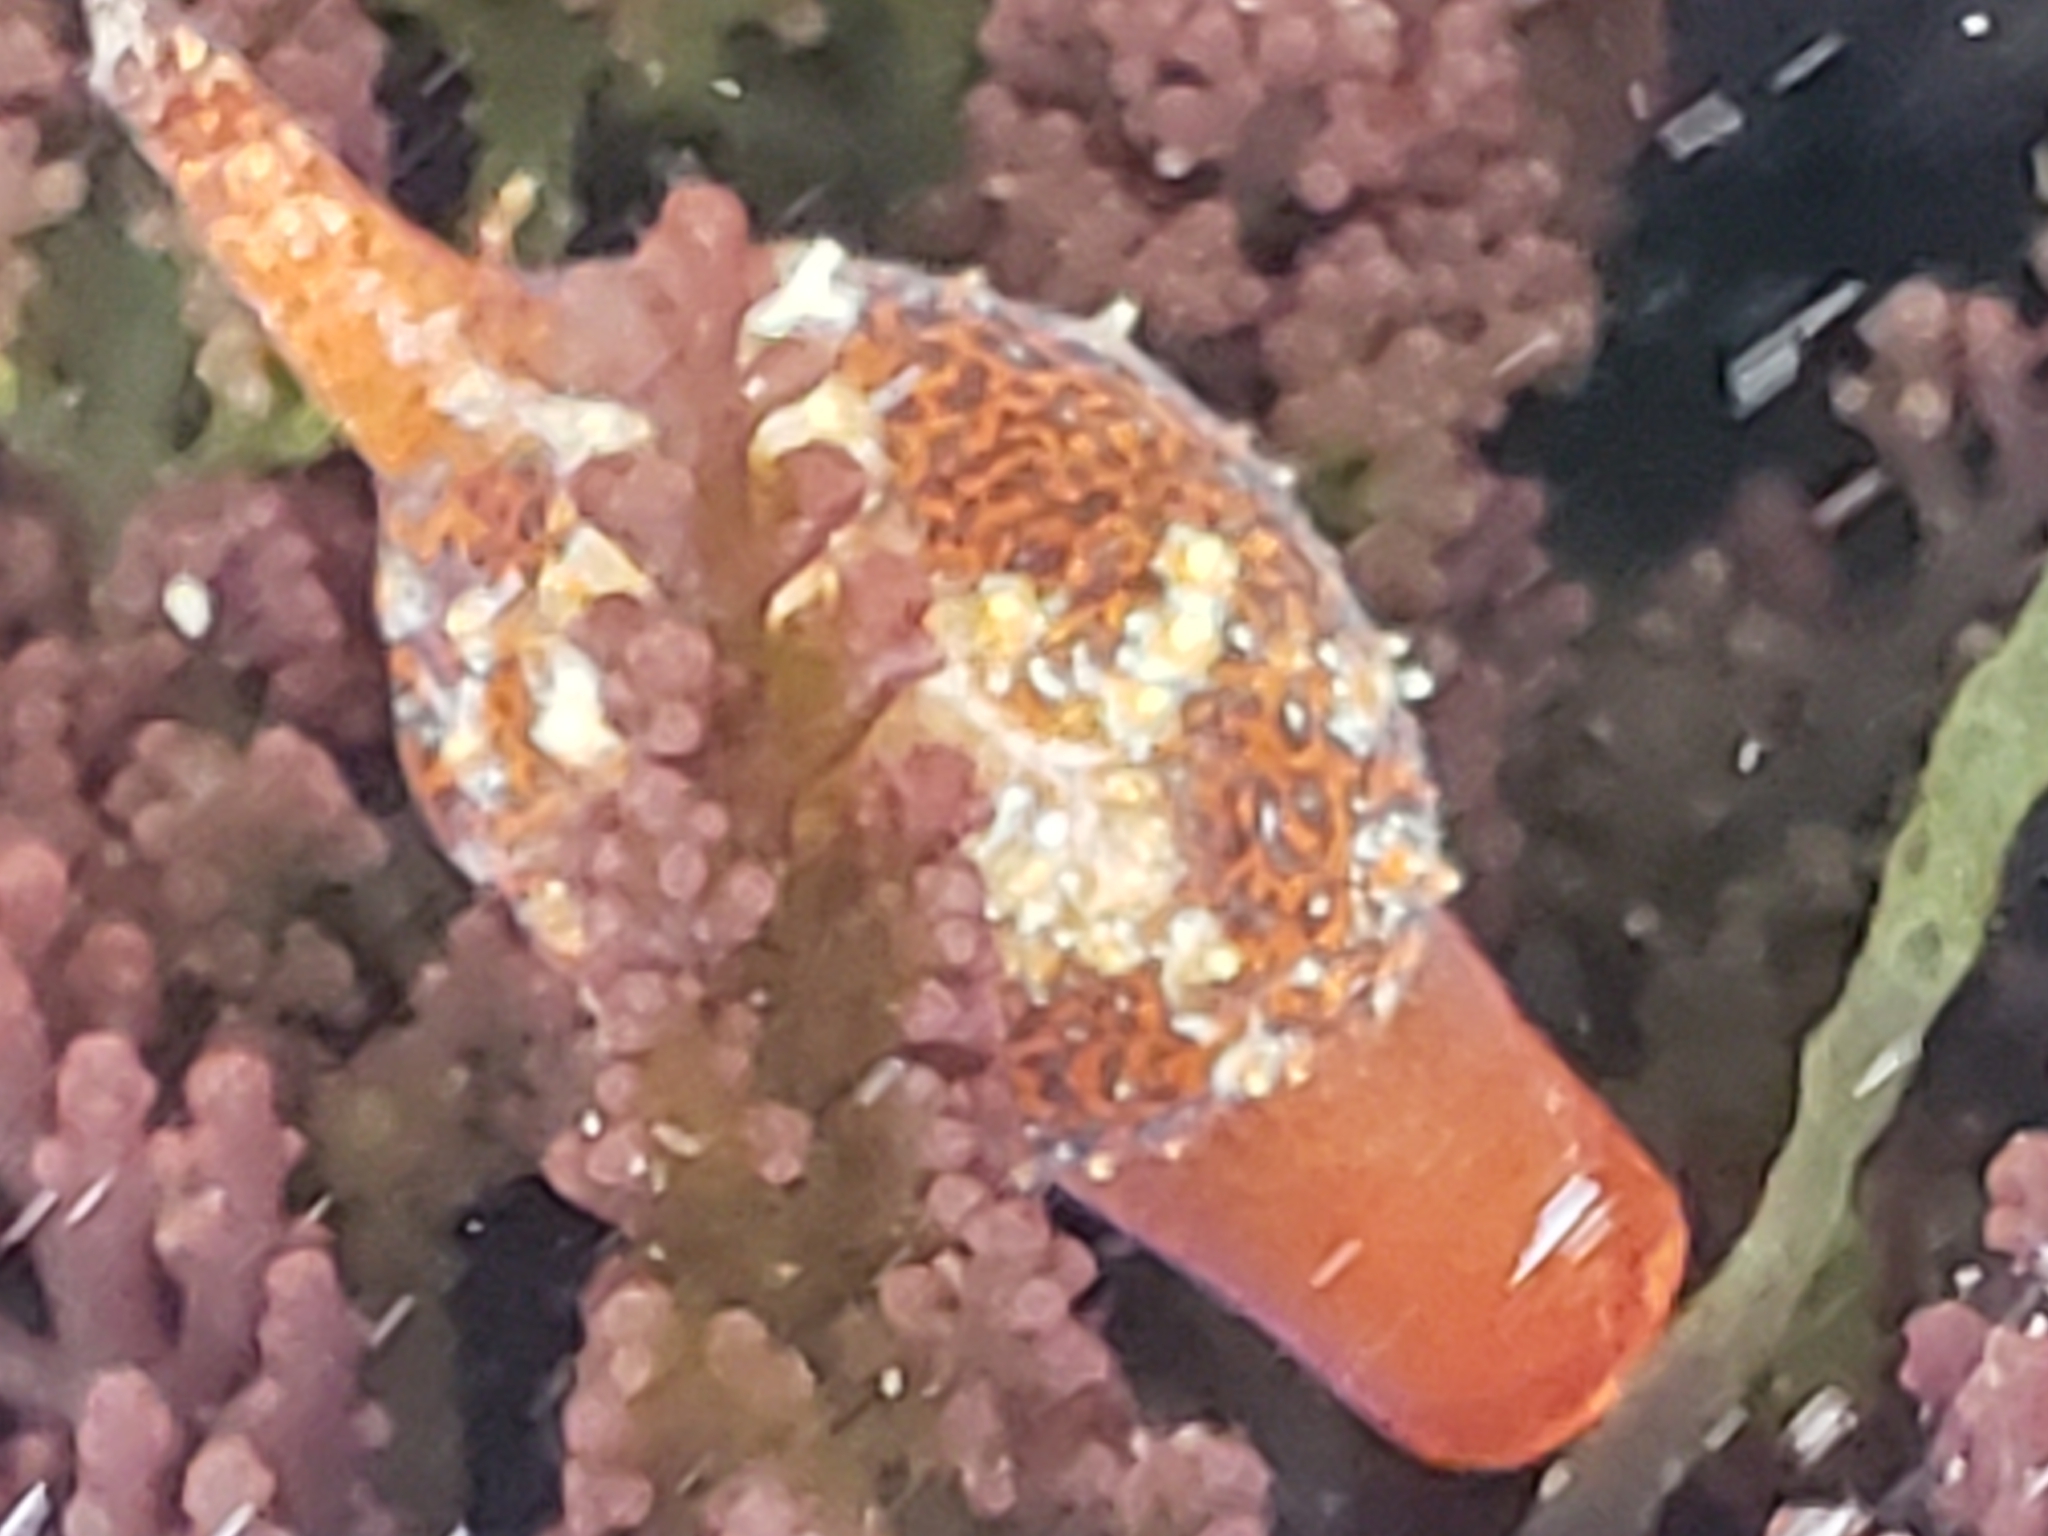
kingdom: Animalia
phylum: Mollusca
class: Gastropoda
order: Littorinimorpha
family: Triviidae
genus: Pseudopusula
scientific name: Pseudopusula californiana
